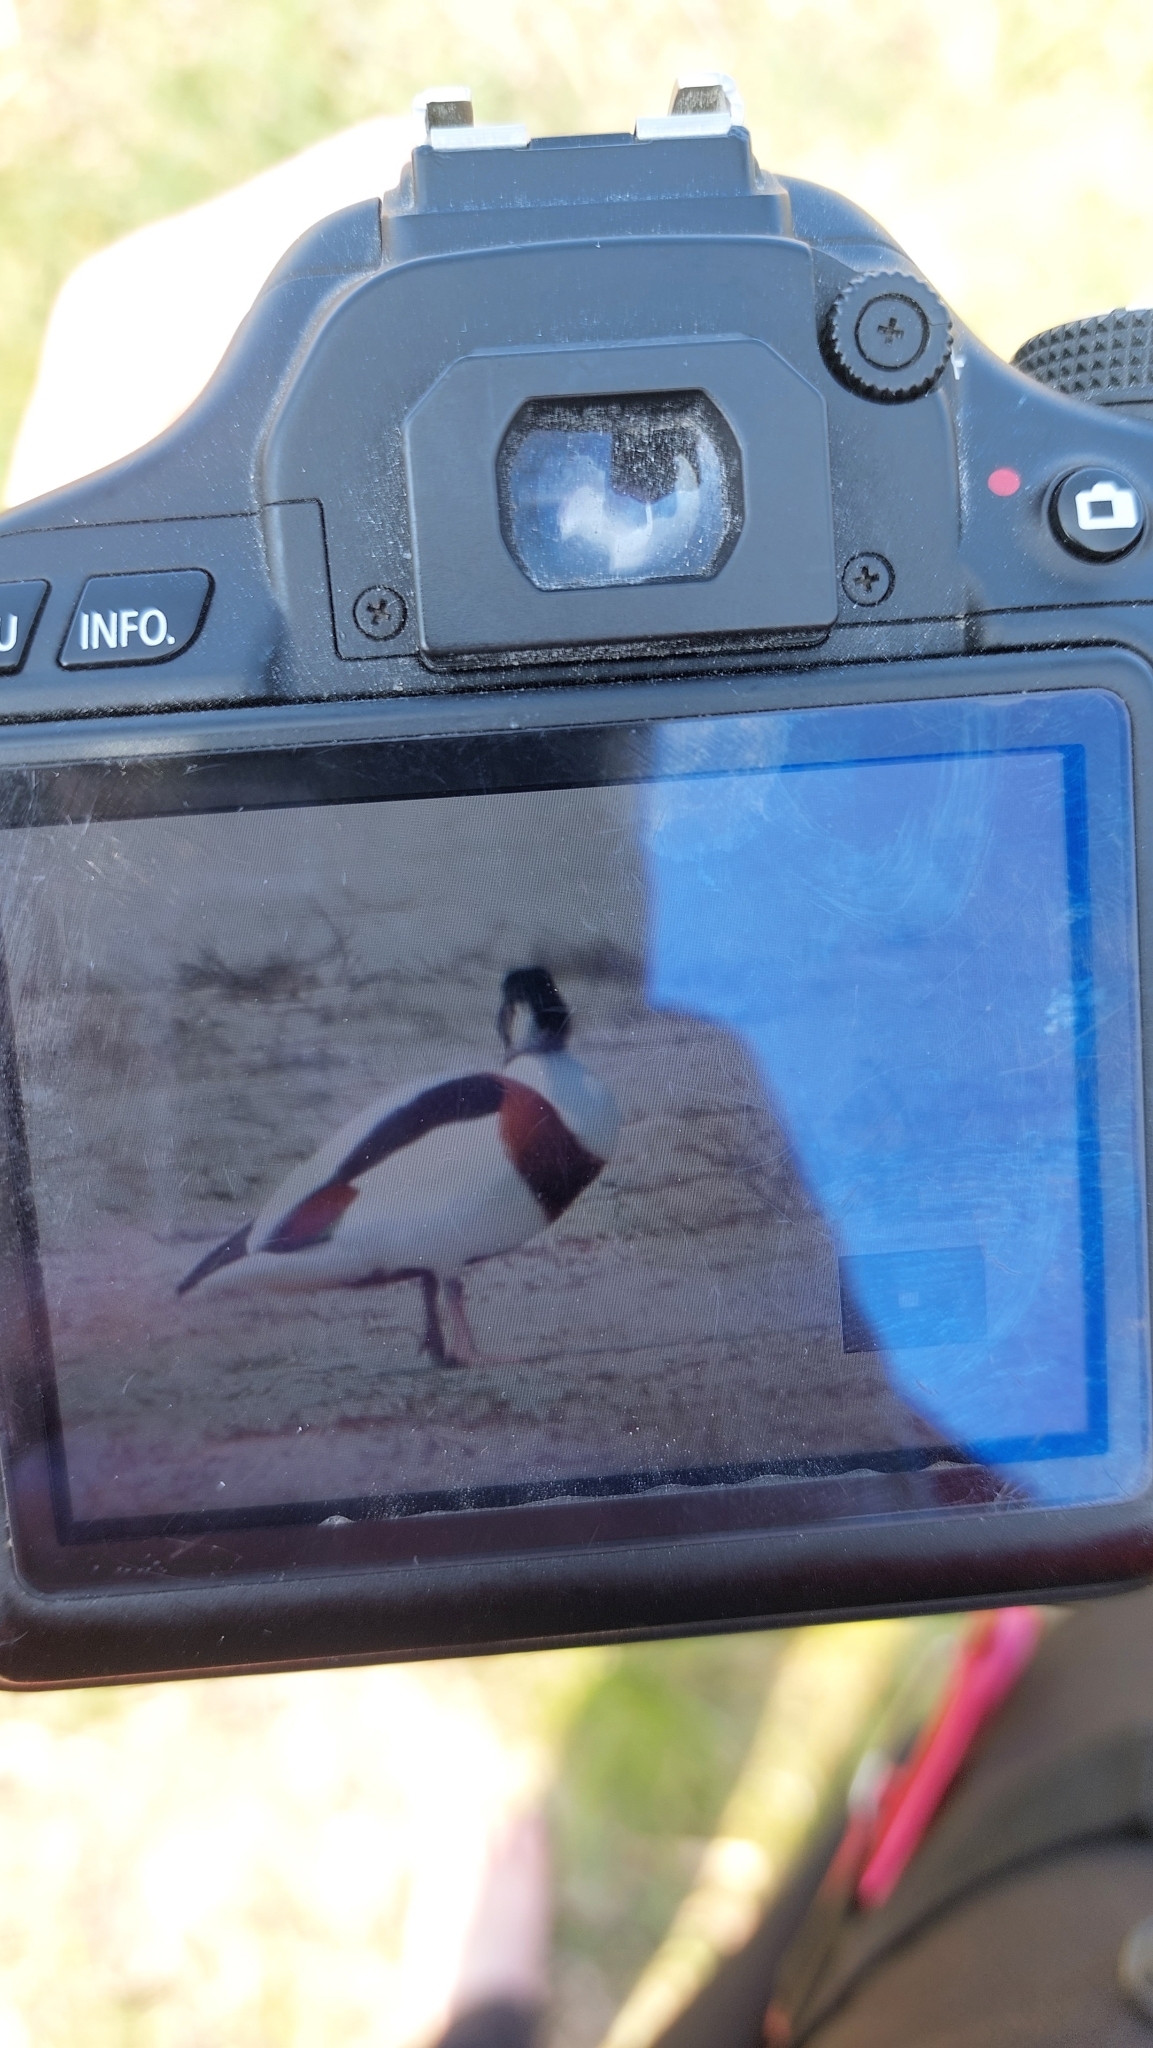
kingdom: Animalia
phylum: Chordata
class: Aves
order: Anseriformes
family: Anatidae
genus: Tadorna
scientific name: Tadorna tadorna
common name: Common shelduck
